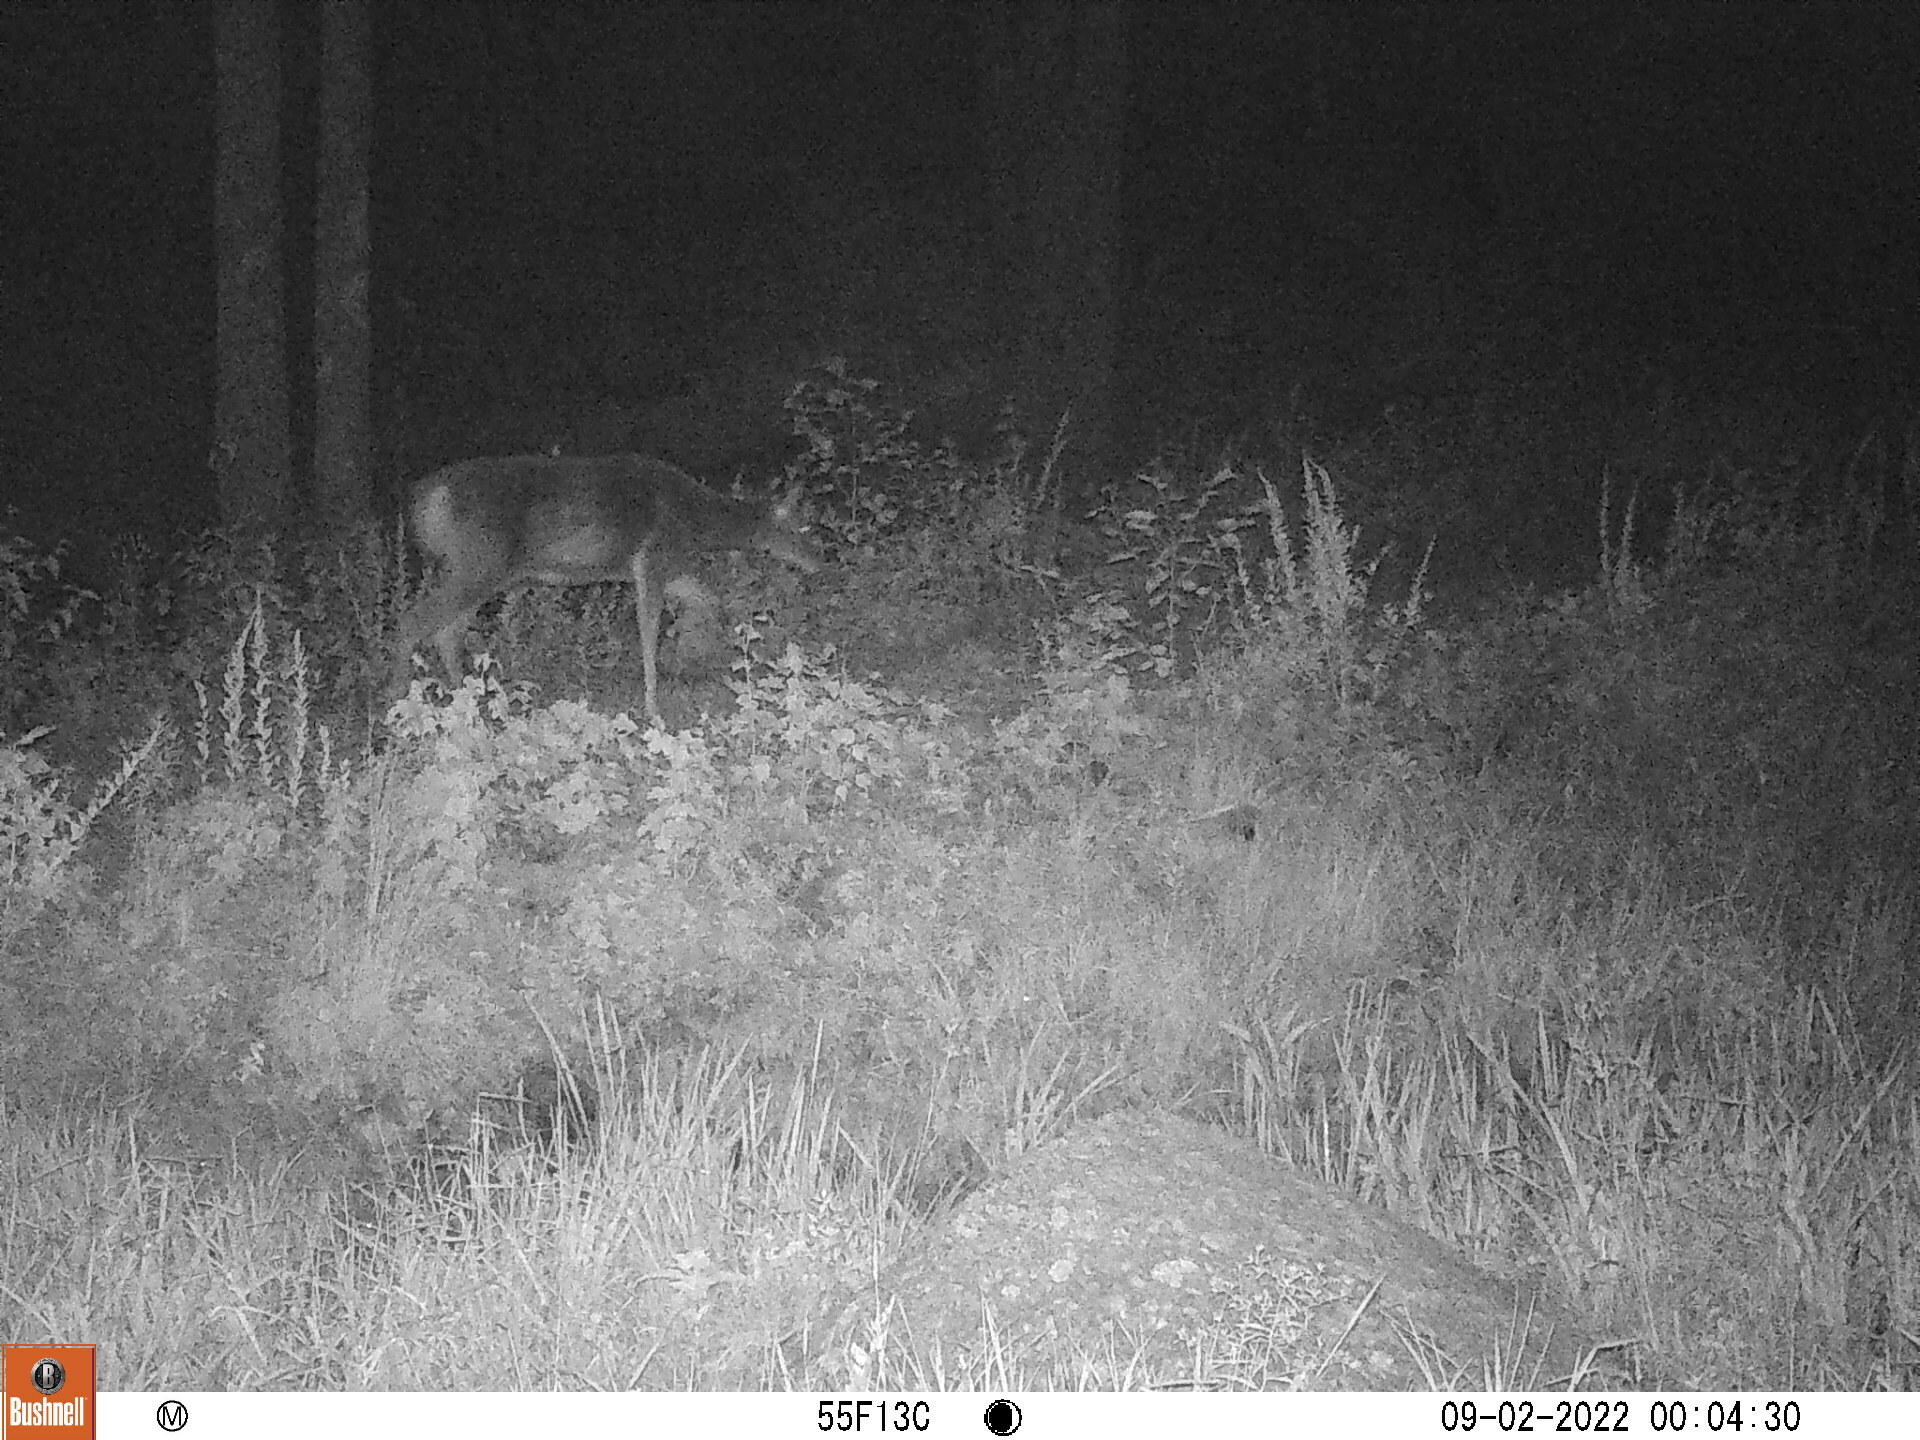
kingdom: Animalia
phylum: Chordata
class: Mammalia
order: Artiodactyla
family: Cervidae
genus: Odocoileus
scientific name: Odocoileus virginianus
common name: White-tailed deer
